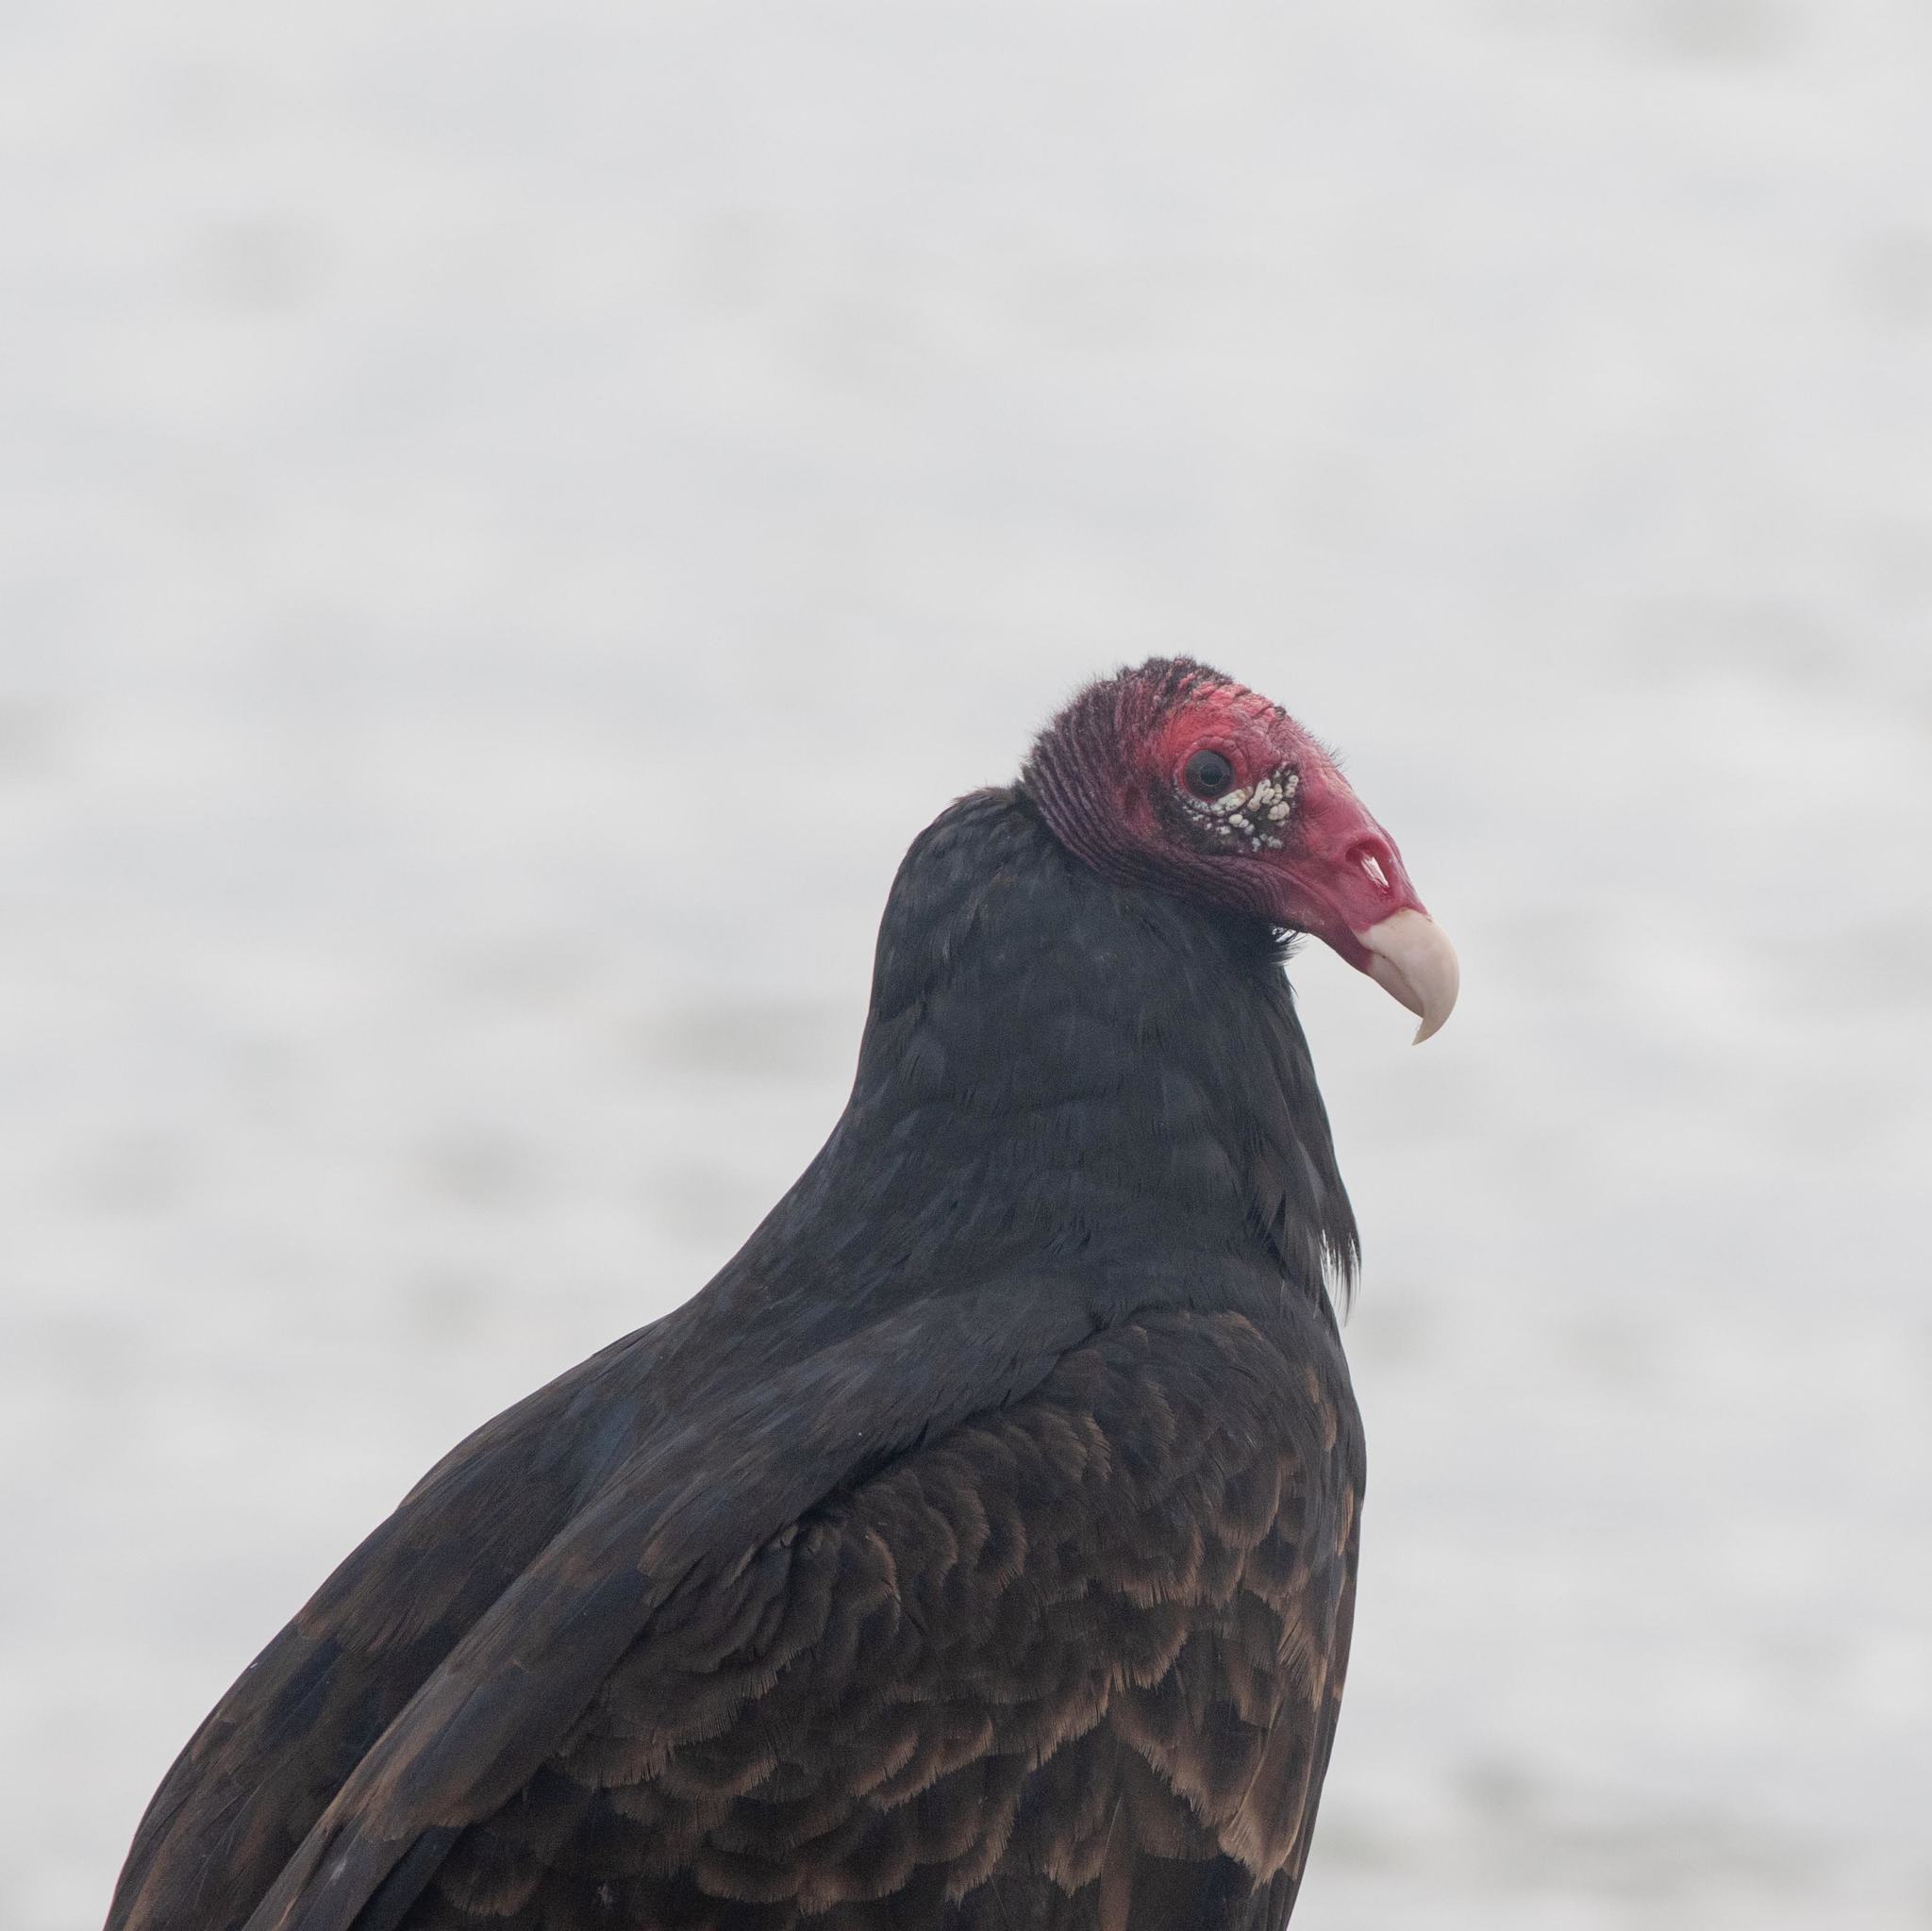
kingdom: Animalia
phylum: Chordata
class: Aves
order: Accipitriformes
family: Cathartidae
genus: Cathartes
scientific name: Cathartes aura
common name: Turkey vulture
